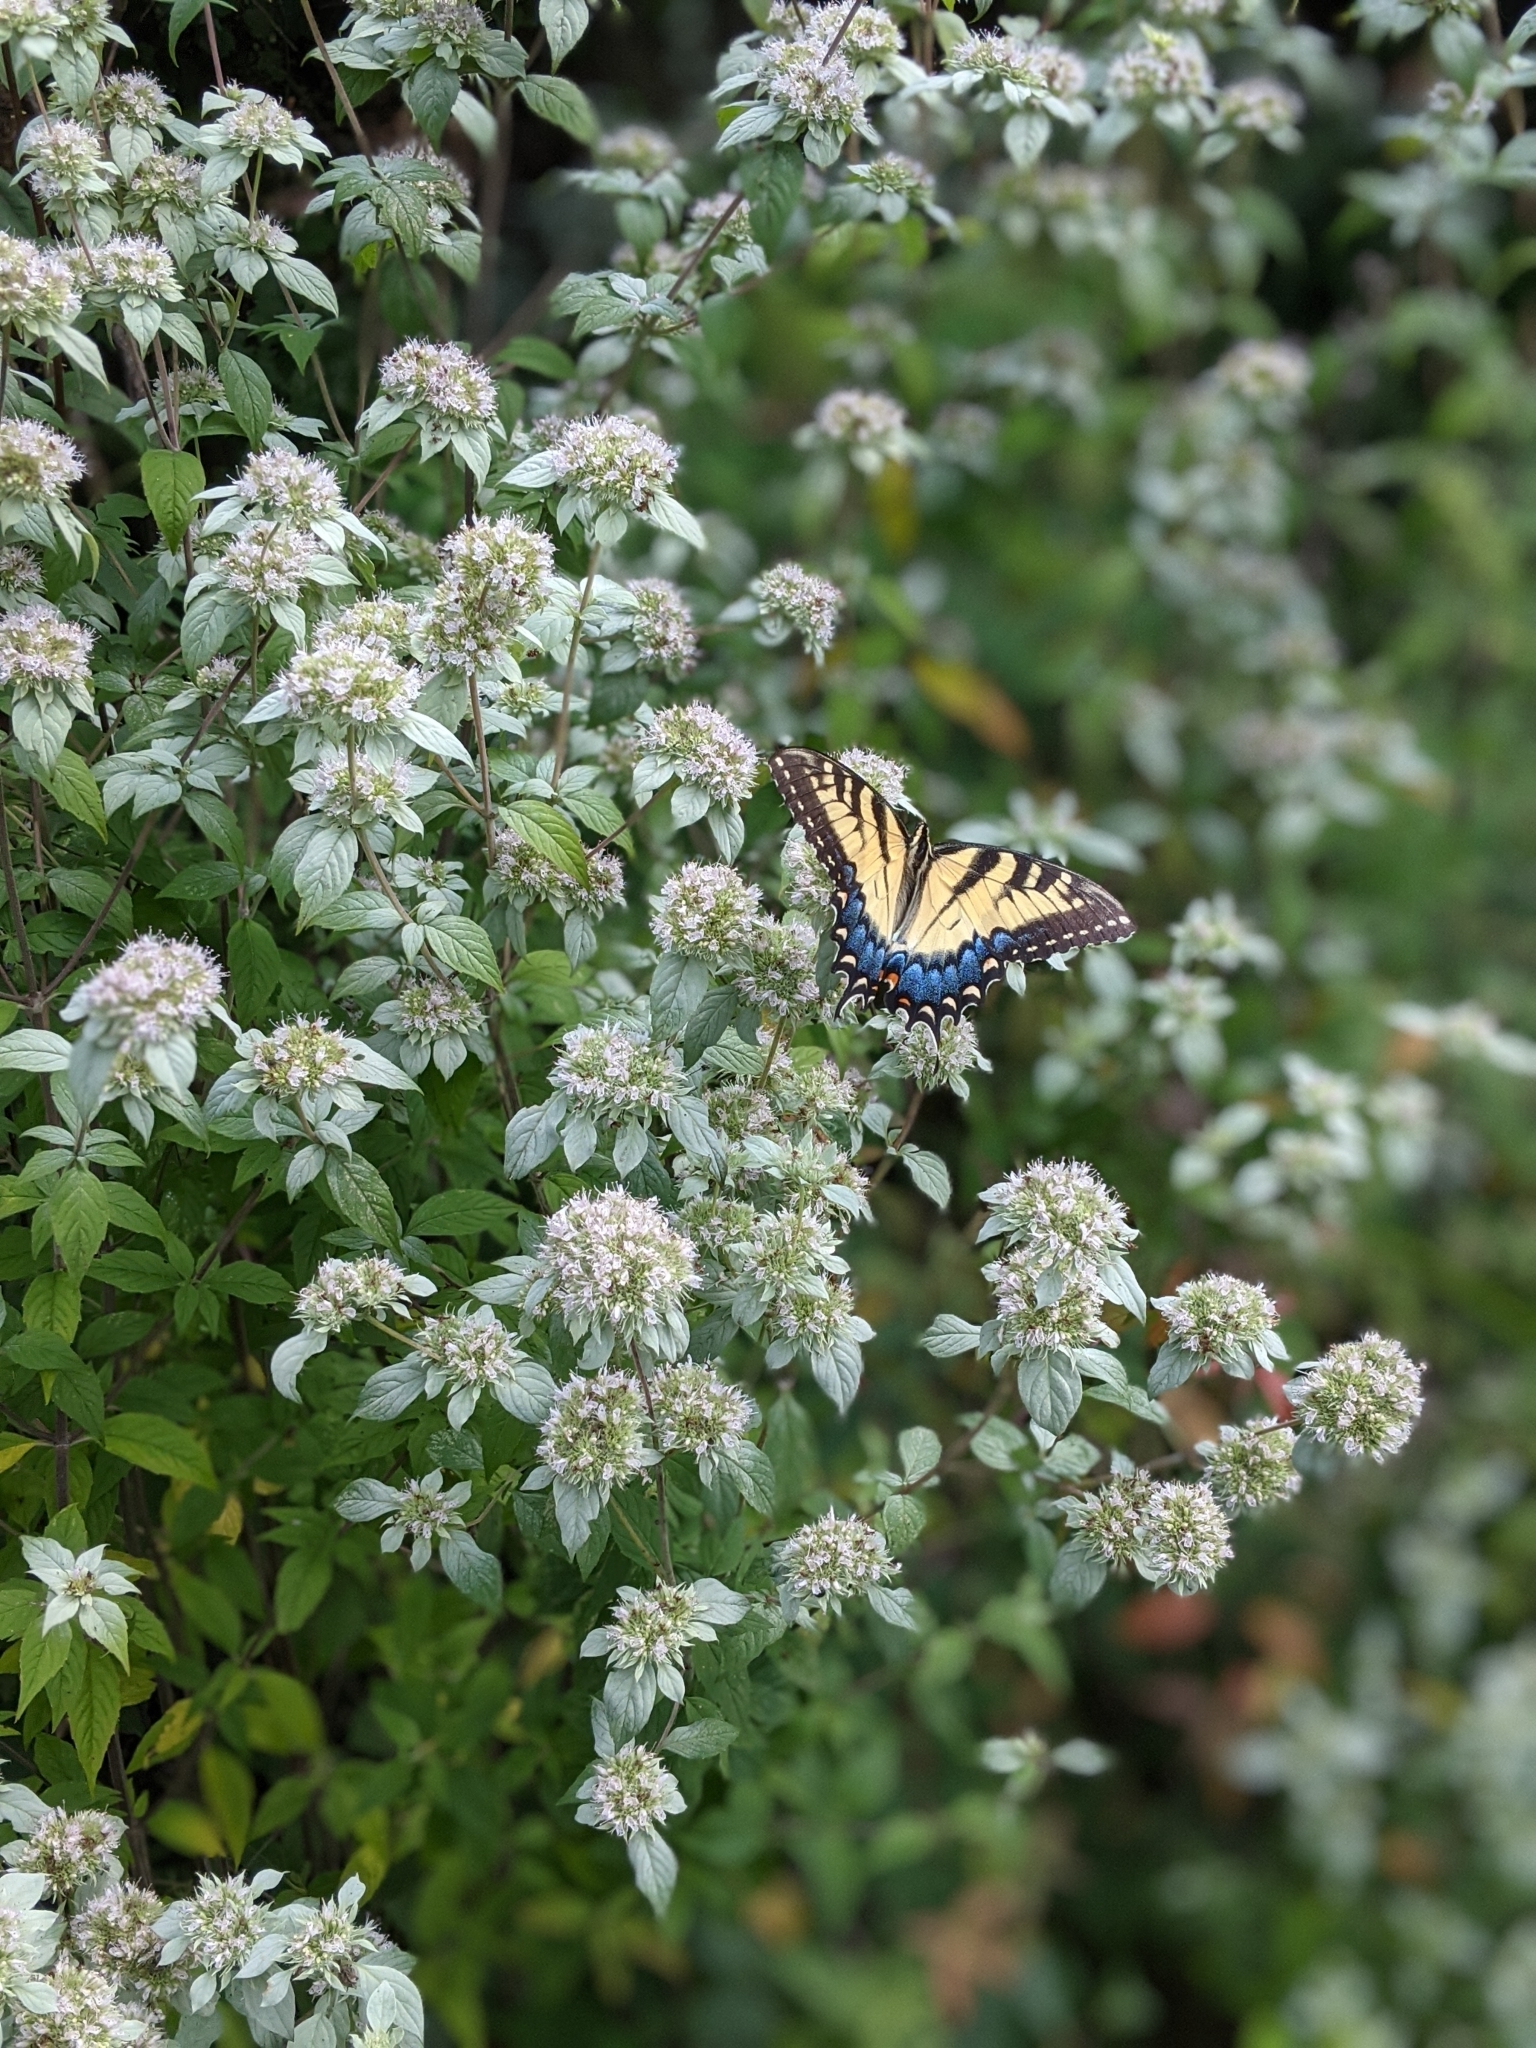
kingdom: Animalia
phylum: Arthropoda
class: Insecta
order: Lepidoptera
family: Papilionidae
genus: Papilio
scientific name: Papilio glaucus
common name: Tiger swallowtail
